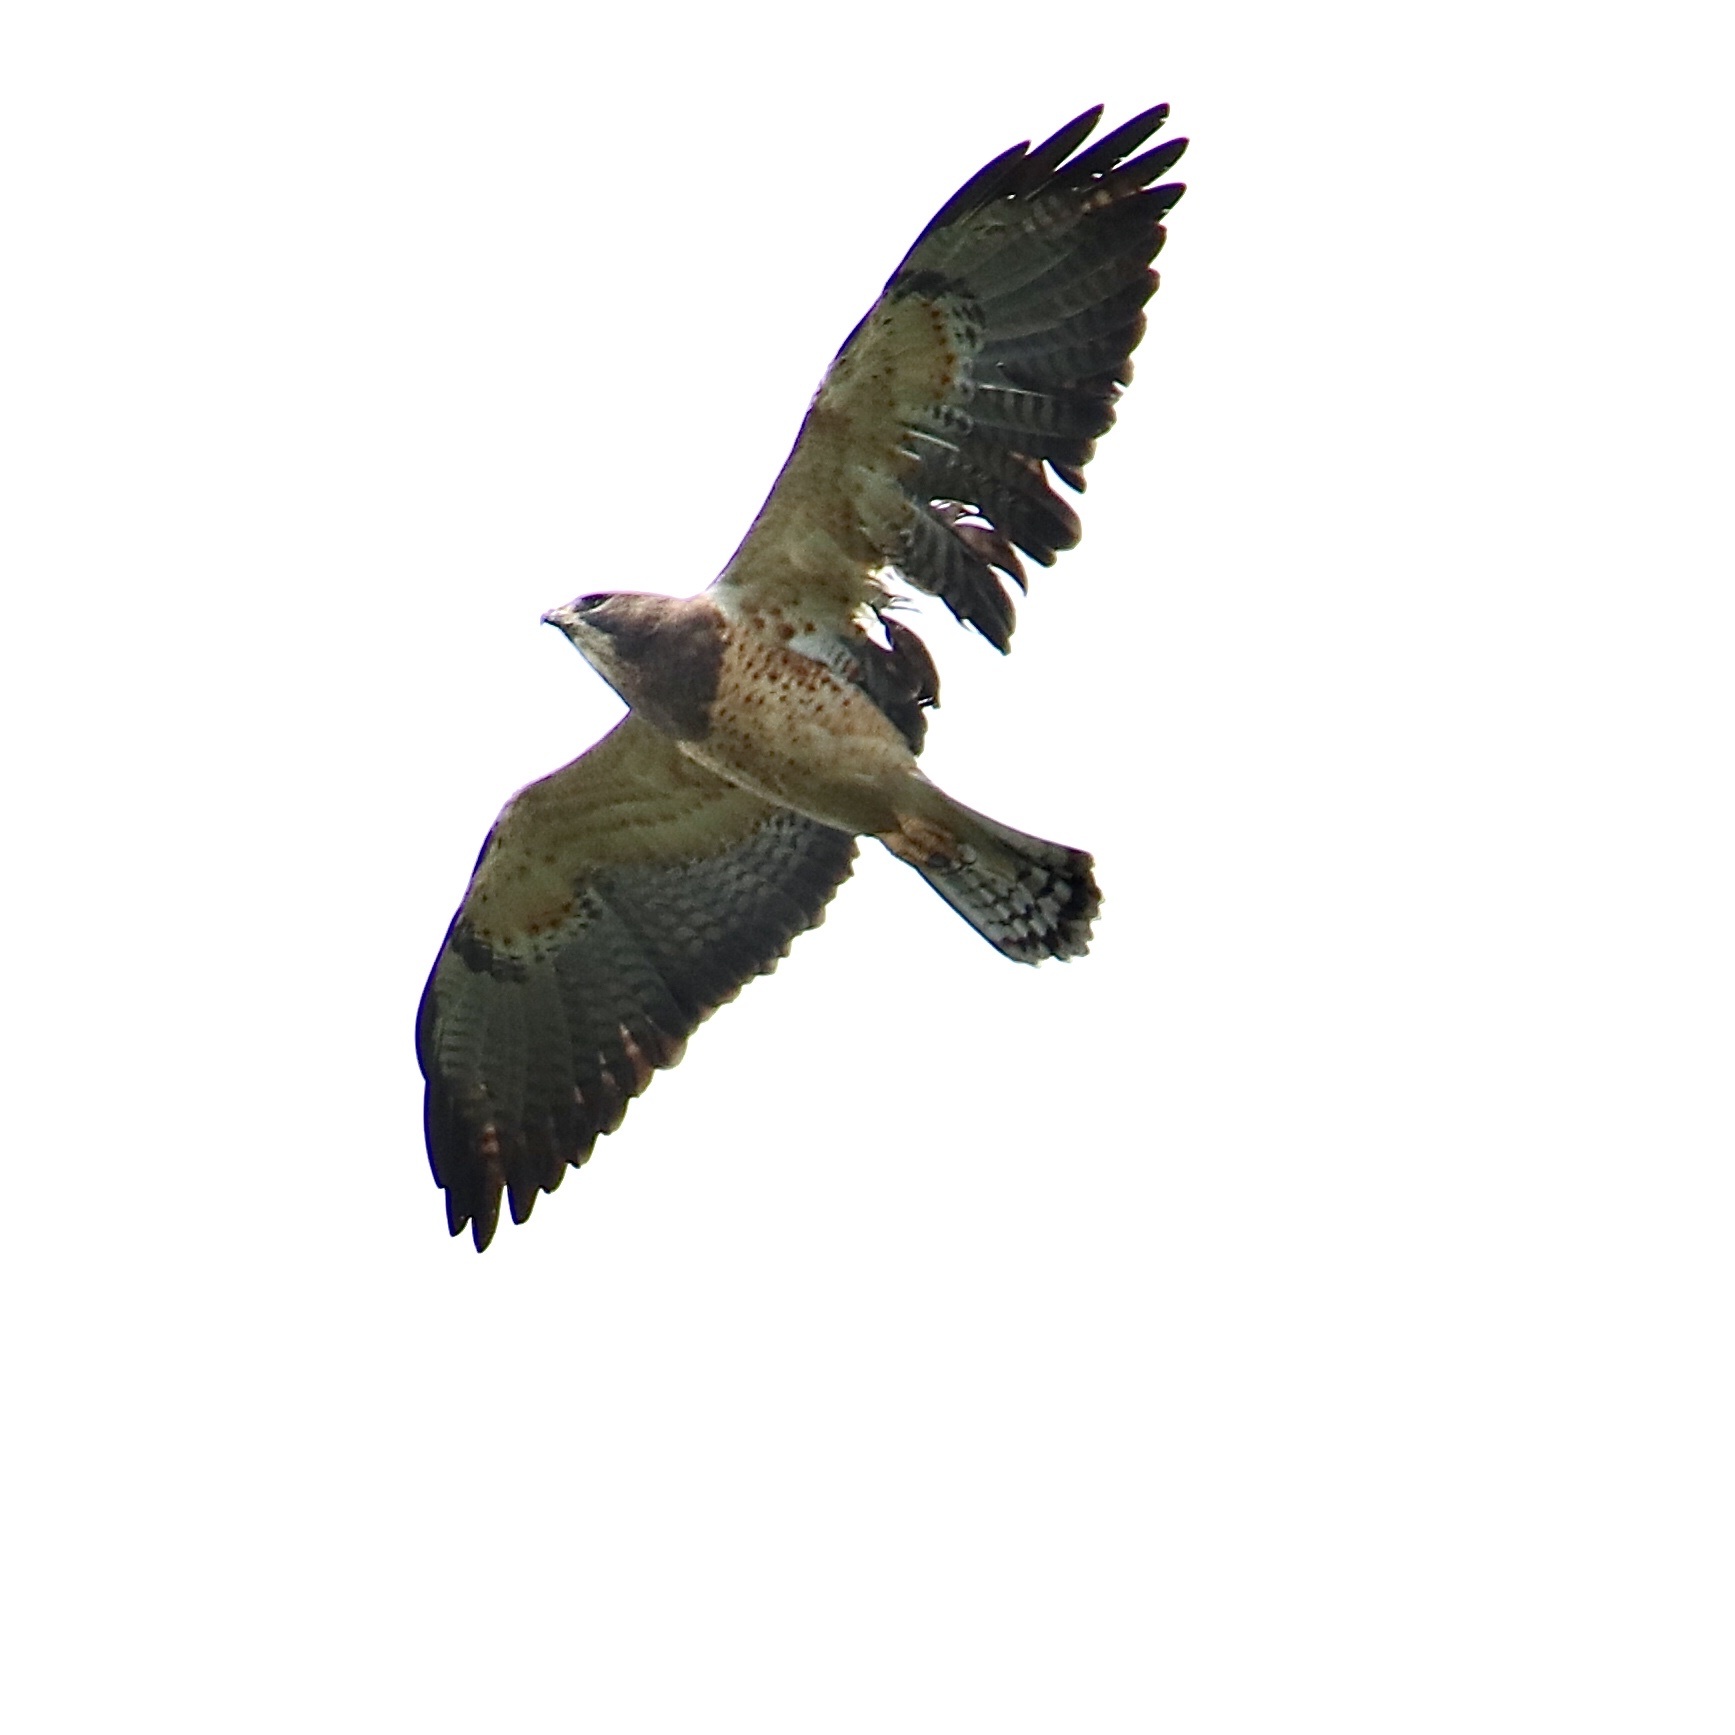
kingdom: Animalia
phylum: Chordata
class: Aves
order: Accipitriformes
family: Accipitridae
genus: Buteo
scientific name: Buteo swainsoni
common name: Swainson's hawk
